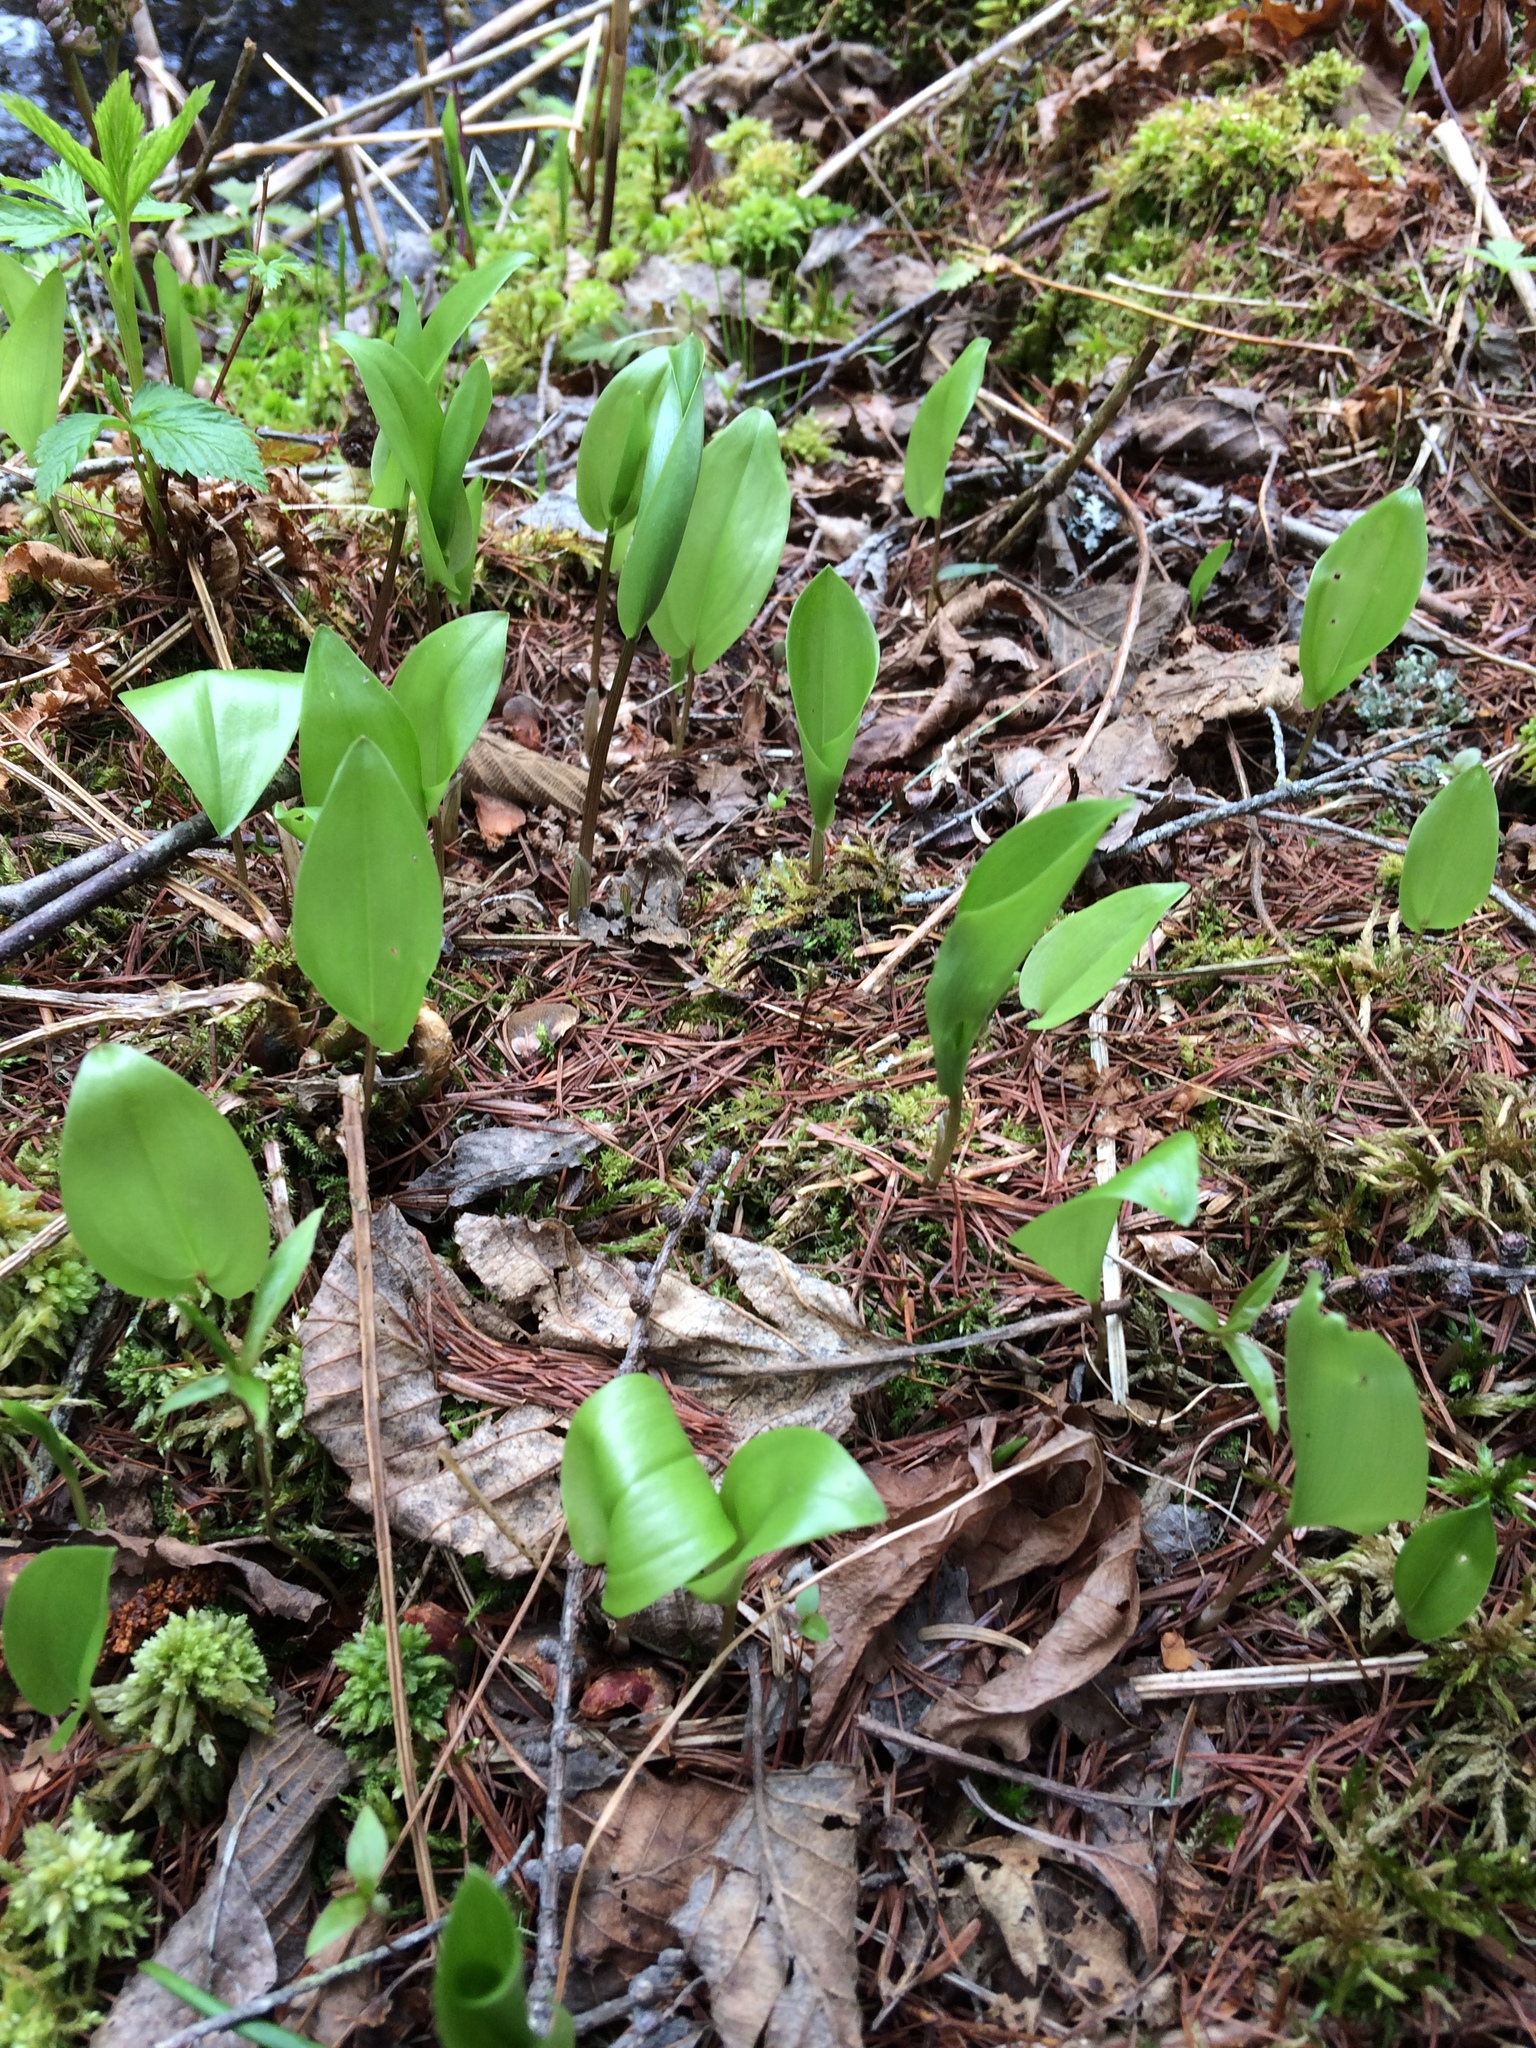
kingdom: Plantae
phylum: Tracheophyta
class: Liliopsida
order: Asparagales
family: Asparagaceae
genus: Maianthemum
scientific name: Maianthemum canadense
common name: False lily-of-the-valley
